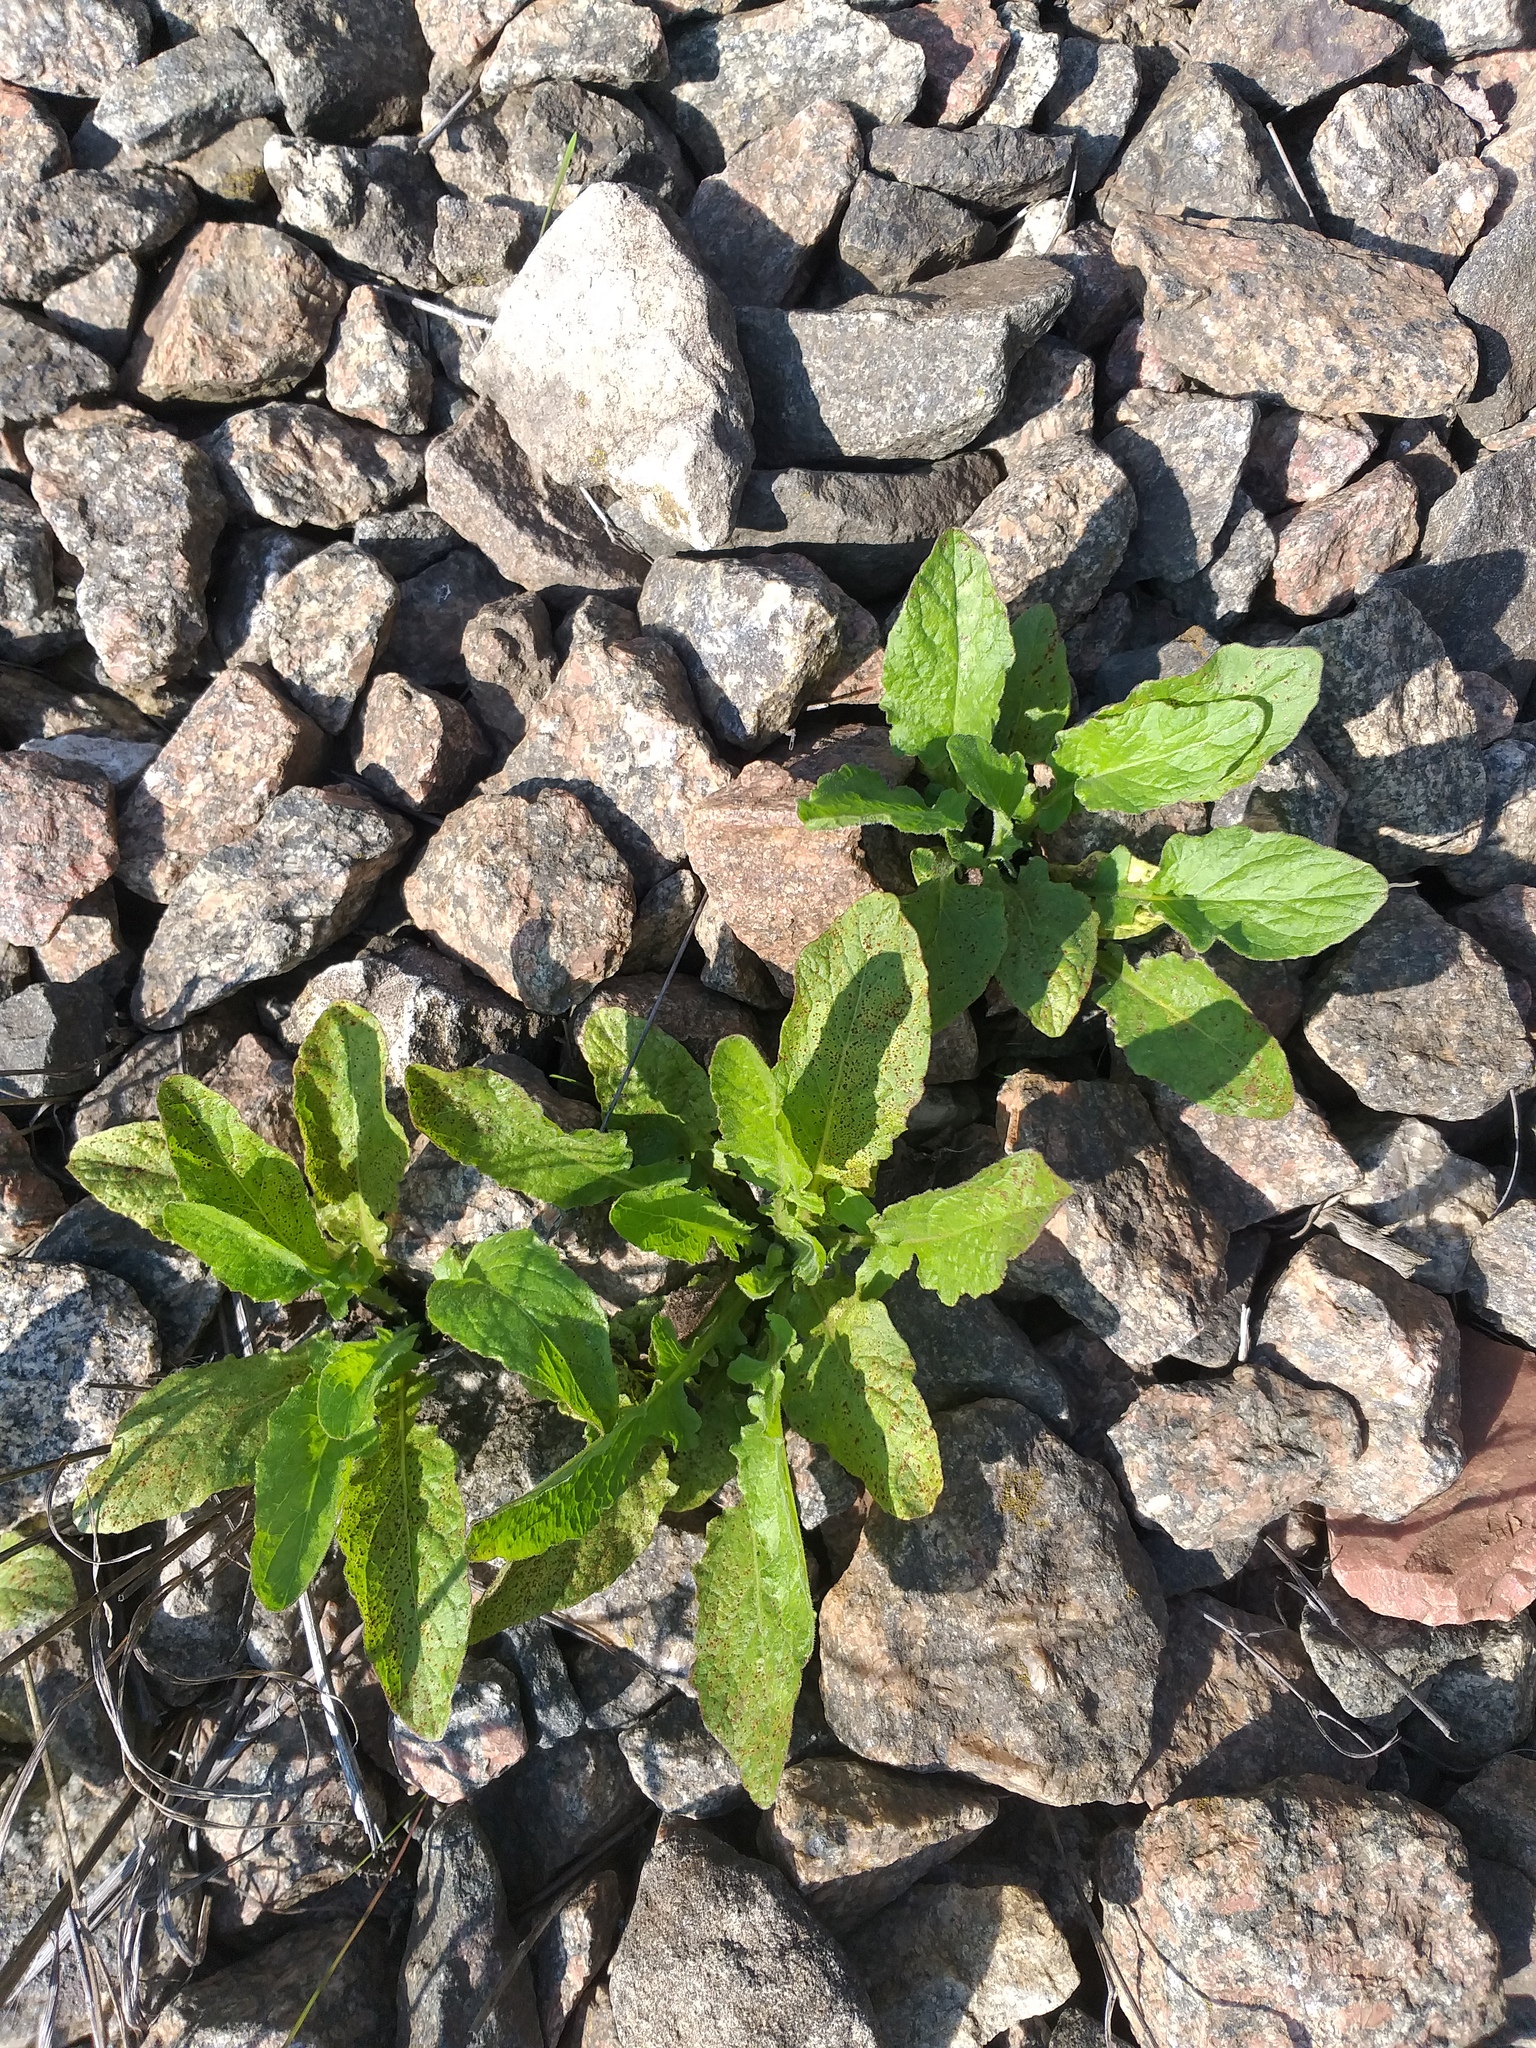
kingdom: Plantae
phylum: Tracheophyta
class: Magnoliopsida
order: Asterales
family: Asteraceae
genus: Lapsana
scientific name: Lapsana communis
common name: Nipplewort
